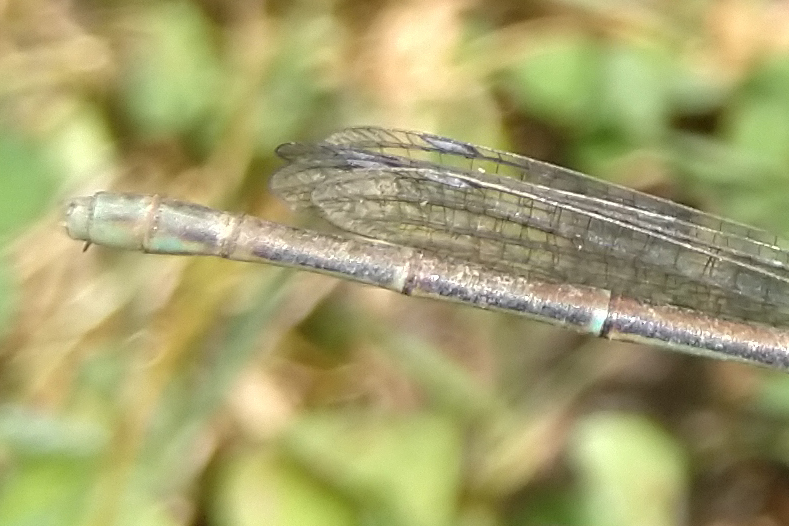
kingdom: Animalia
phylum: Arthropoda
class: Insecta
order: Odonata
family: Coenagrionidae
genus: Argia
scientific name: Argia moesta
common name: Powdered dancer
